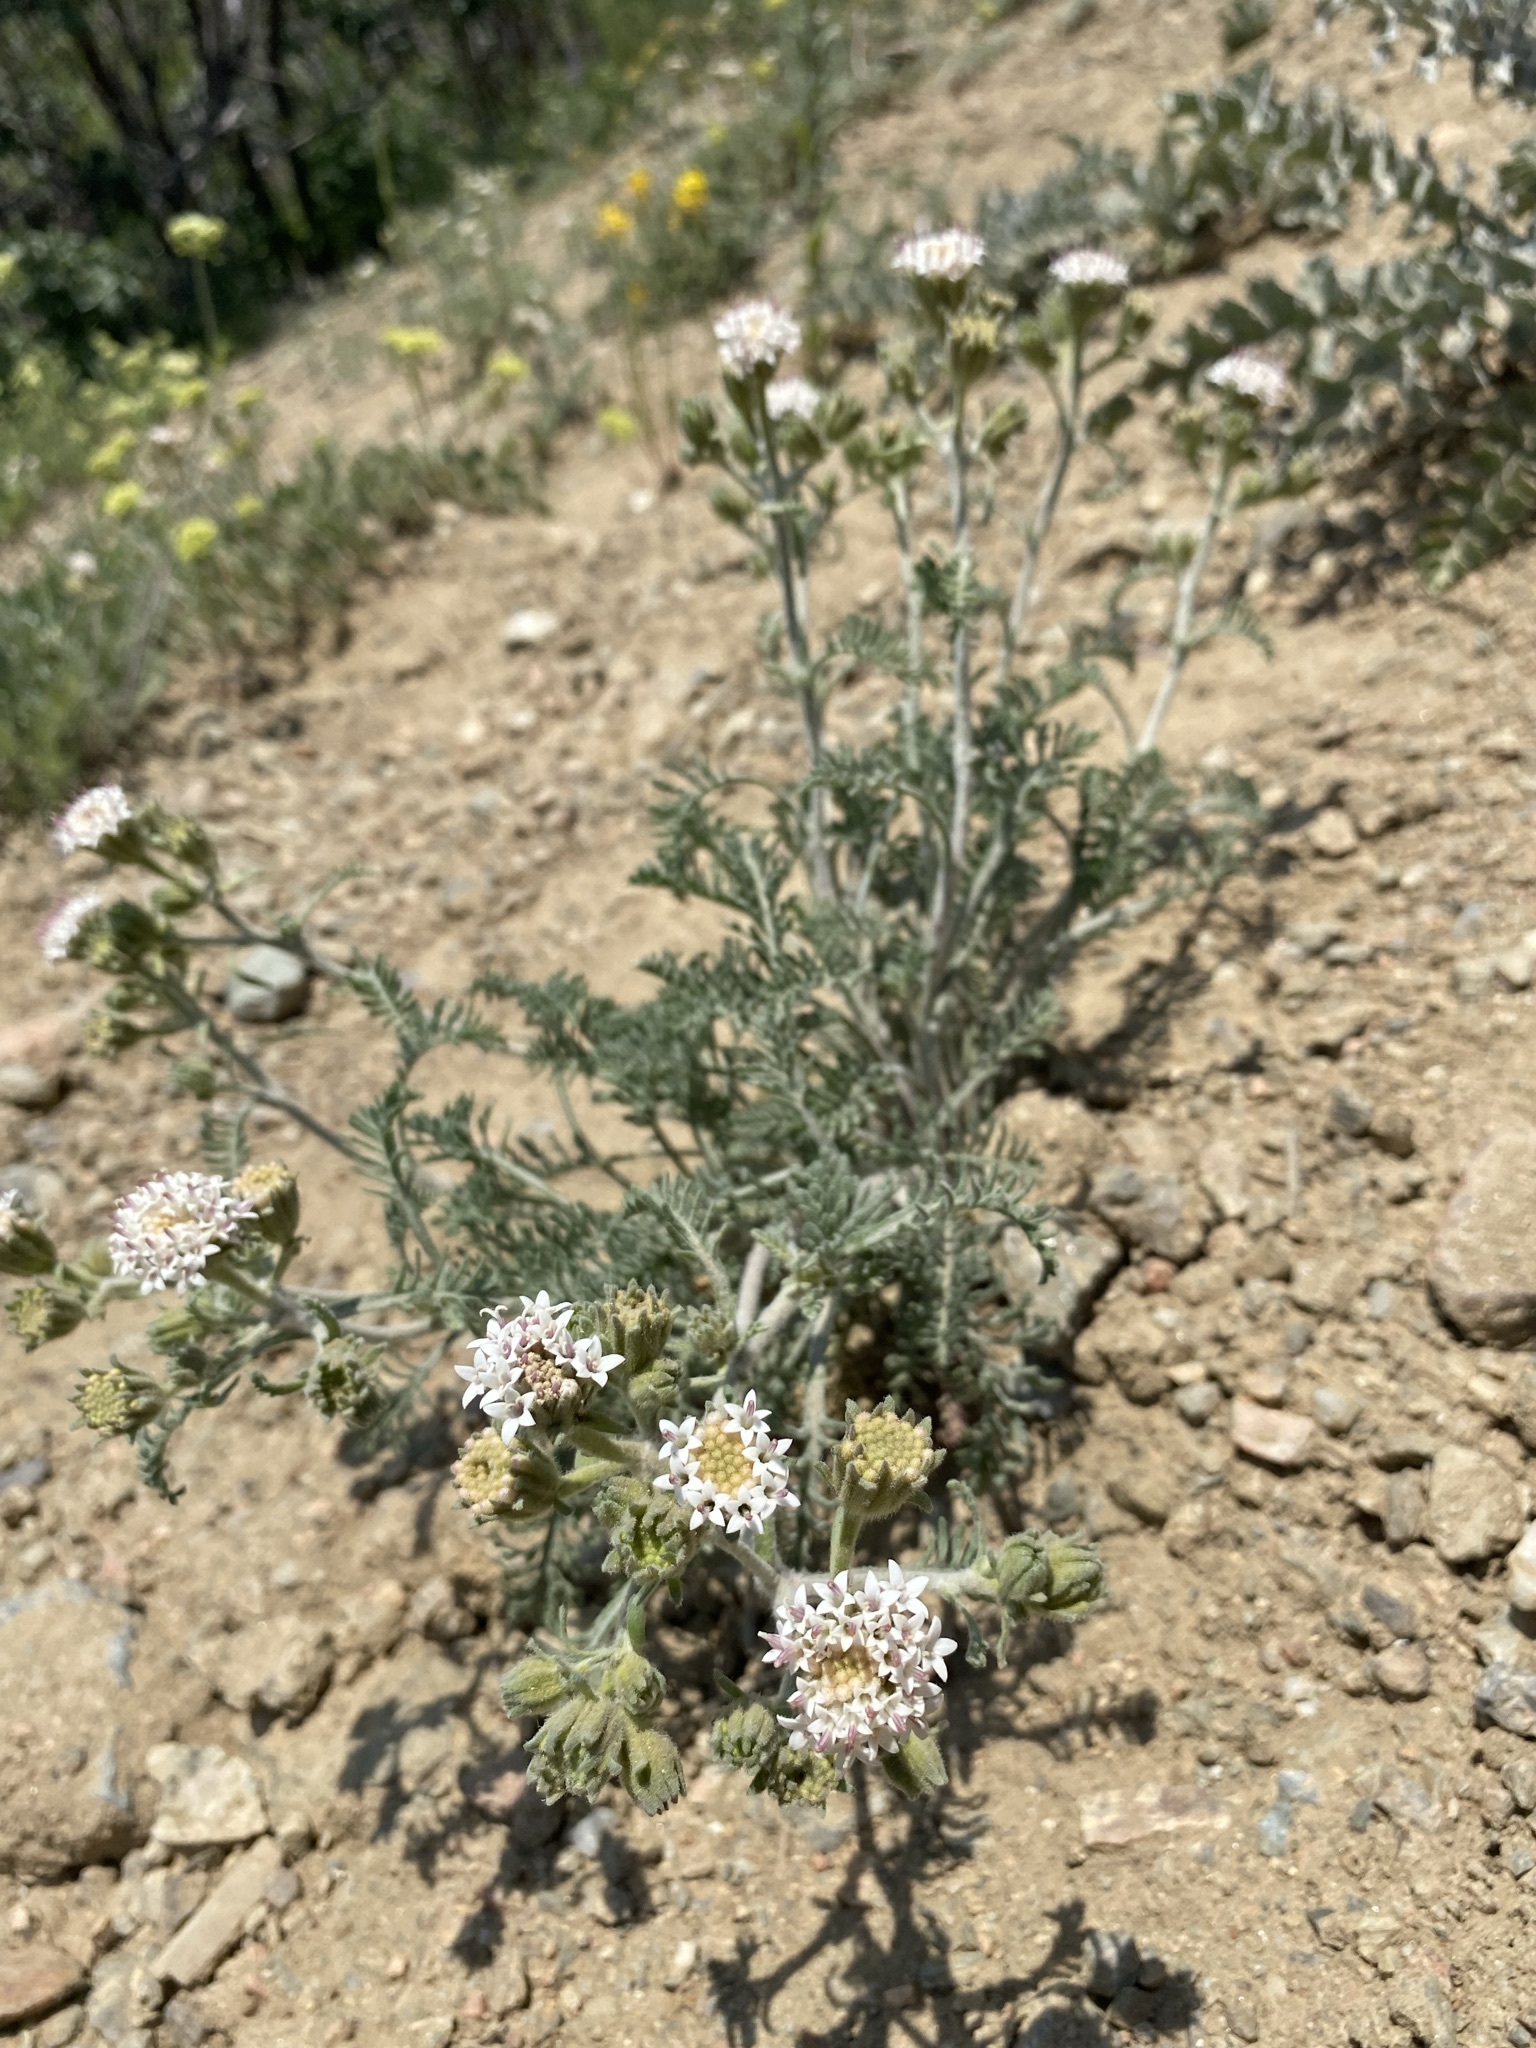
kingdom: Plantae
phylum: Tracheophyta
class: Magnoliopsida
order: Asterales
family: Asteraceae
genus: Chaenactis
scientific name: Chaenactis douglasii
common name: Hoary pincushion
